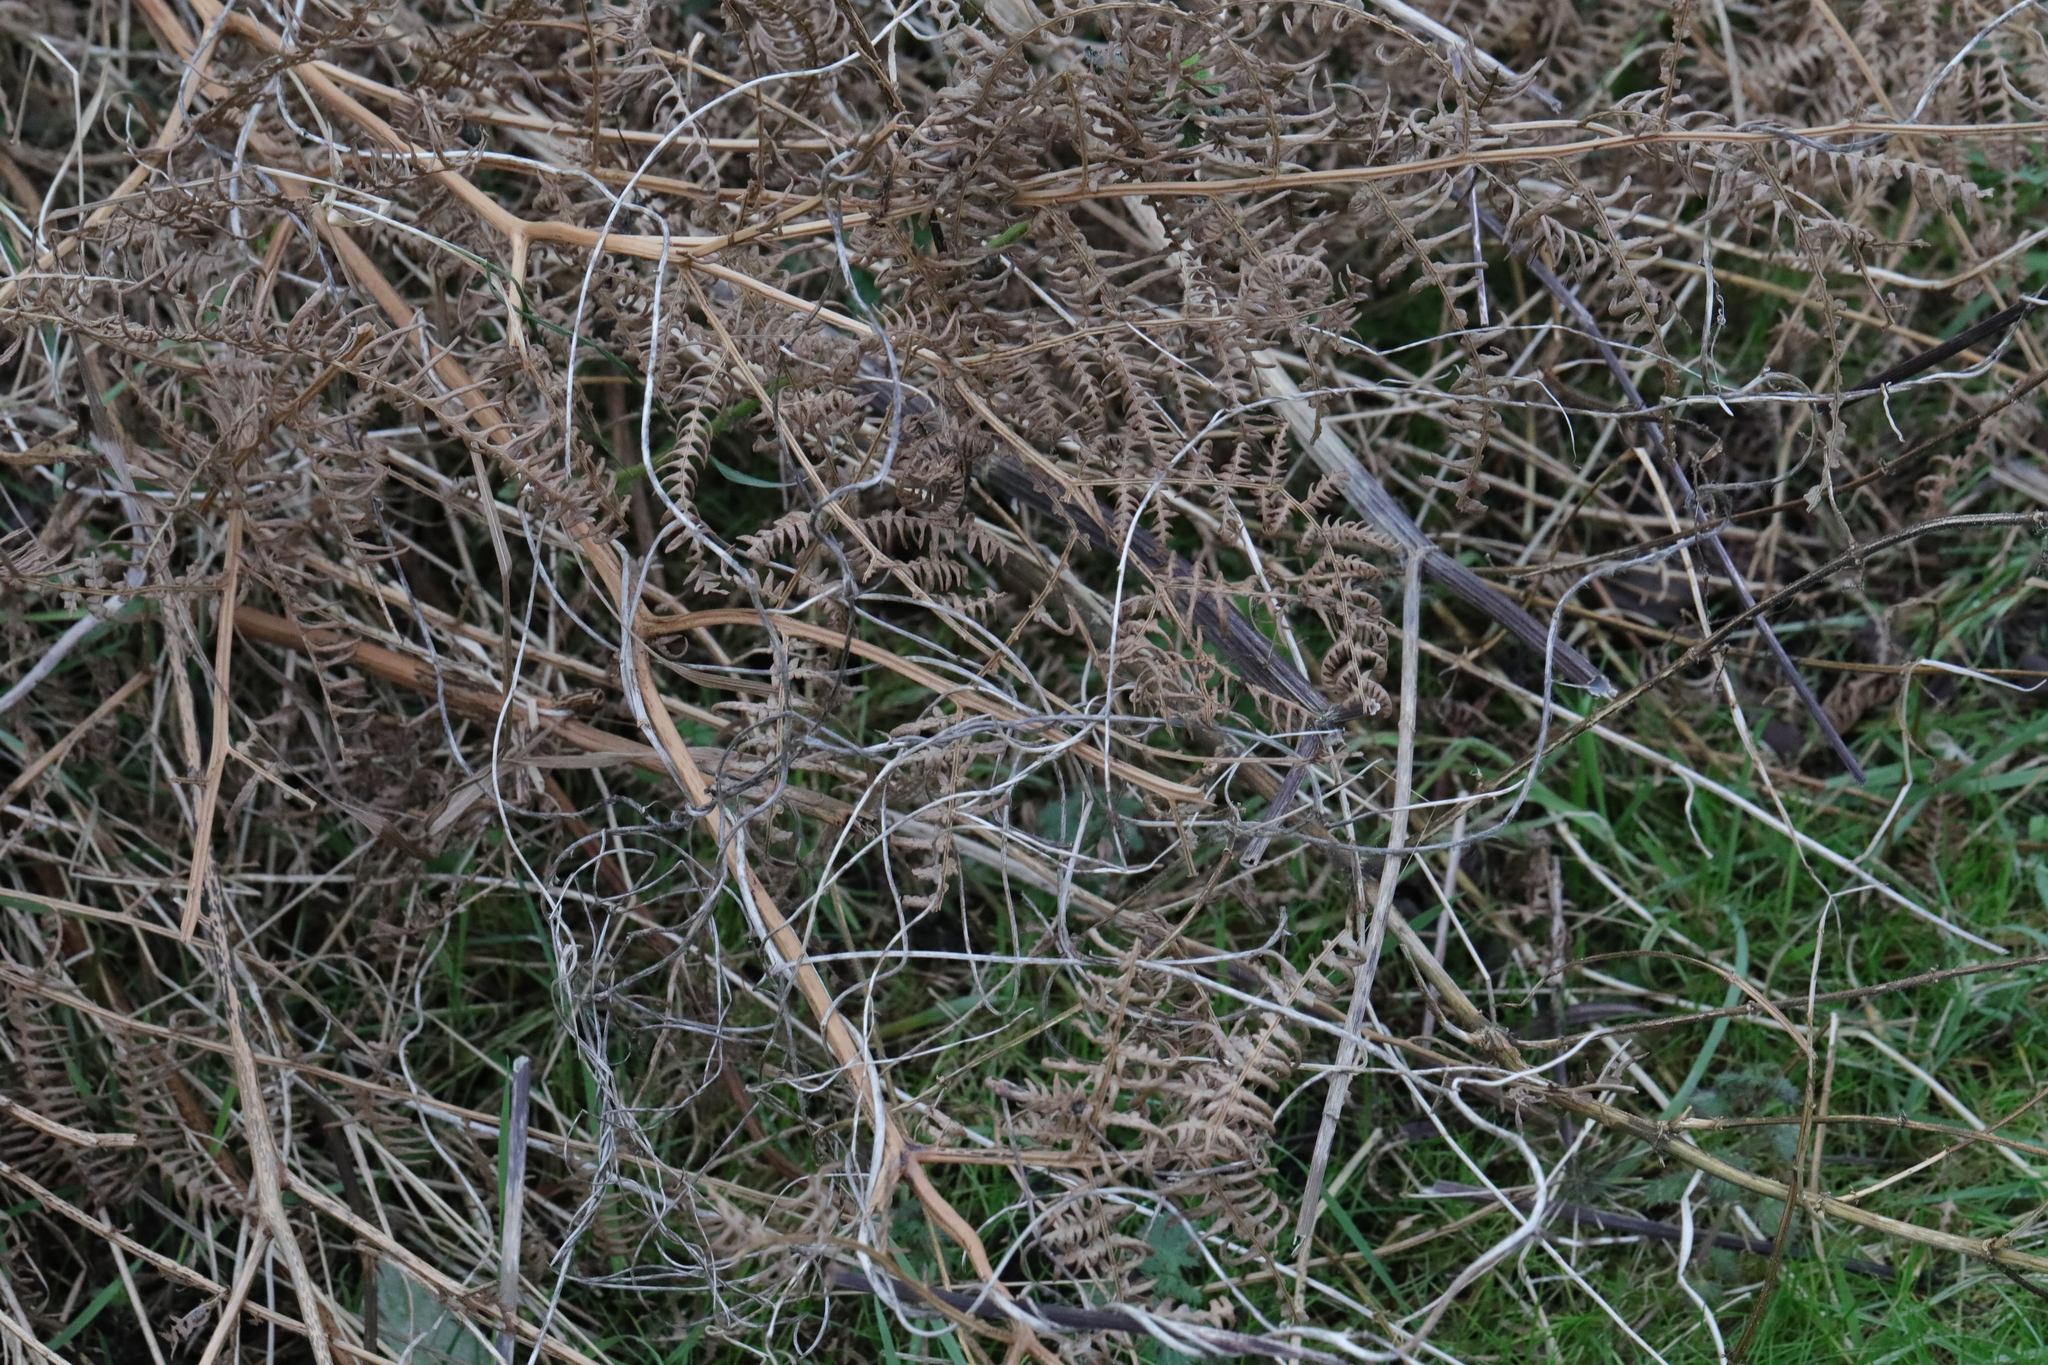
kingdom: Plantae
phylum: Tracheophyta
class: Polypodiopsida
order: Polypodiales
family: Dennstaedtiaceae
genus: Pteridium
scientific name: Pteridium aquilinum
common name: Bracken
